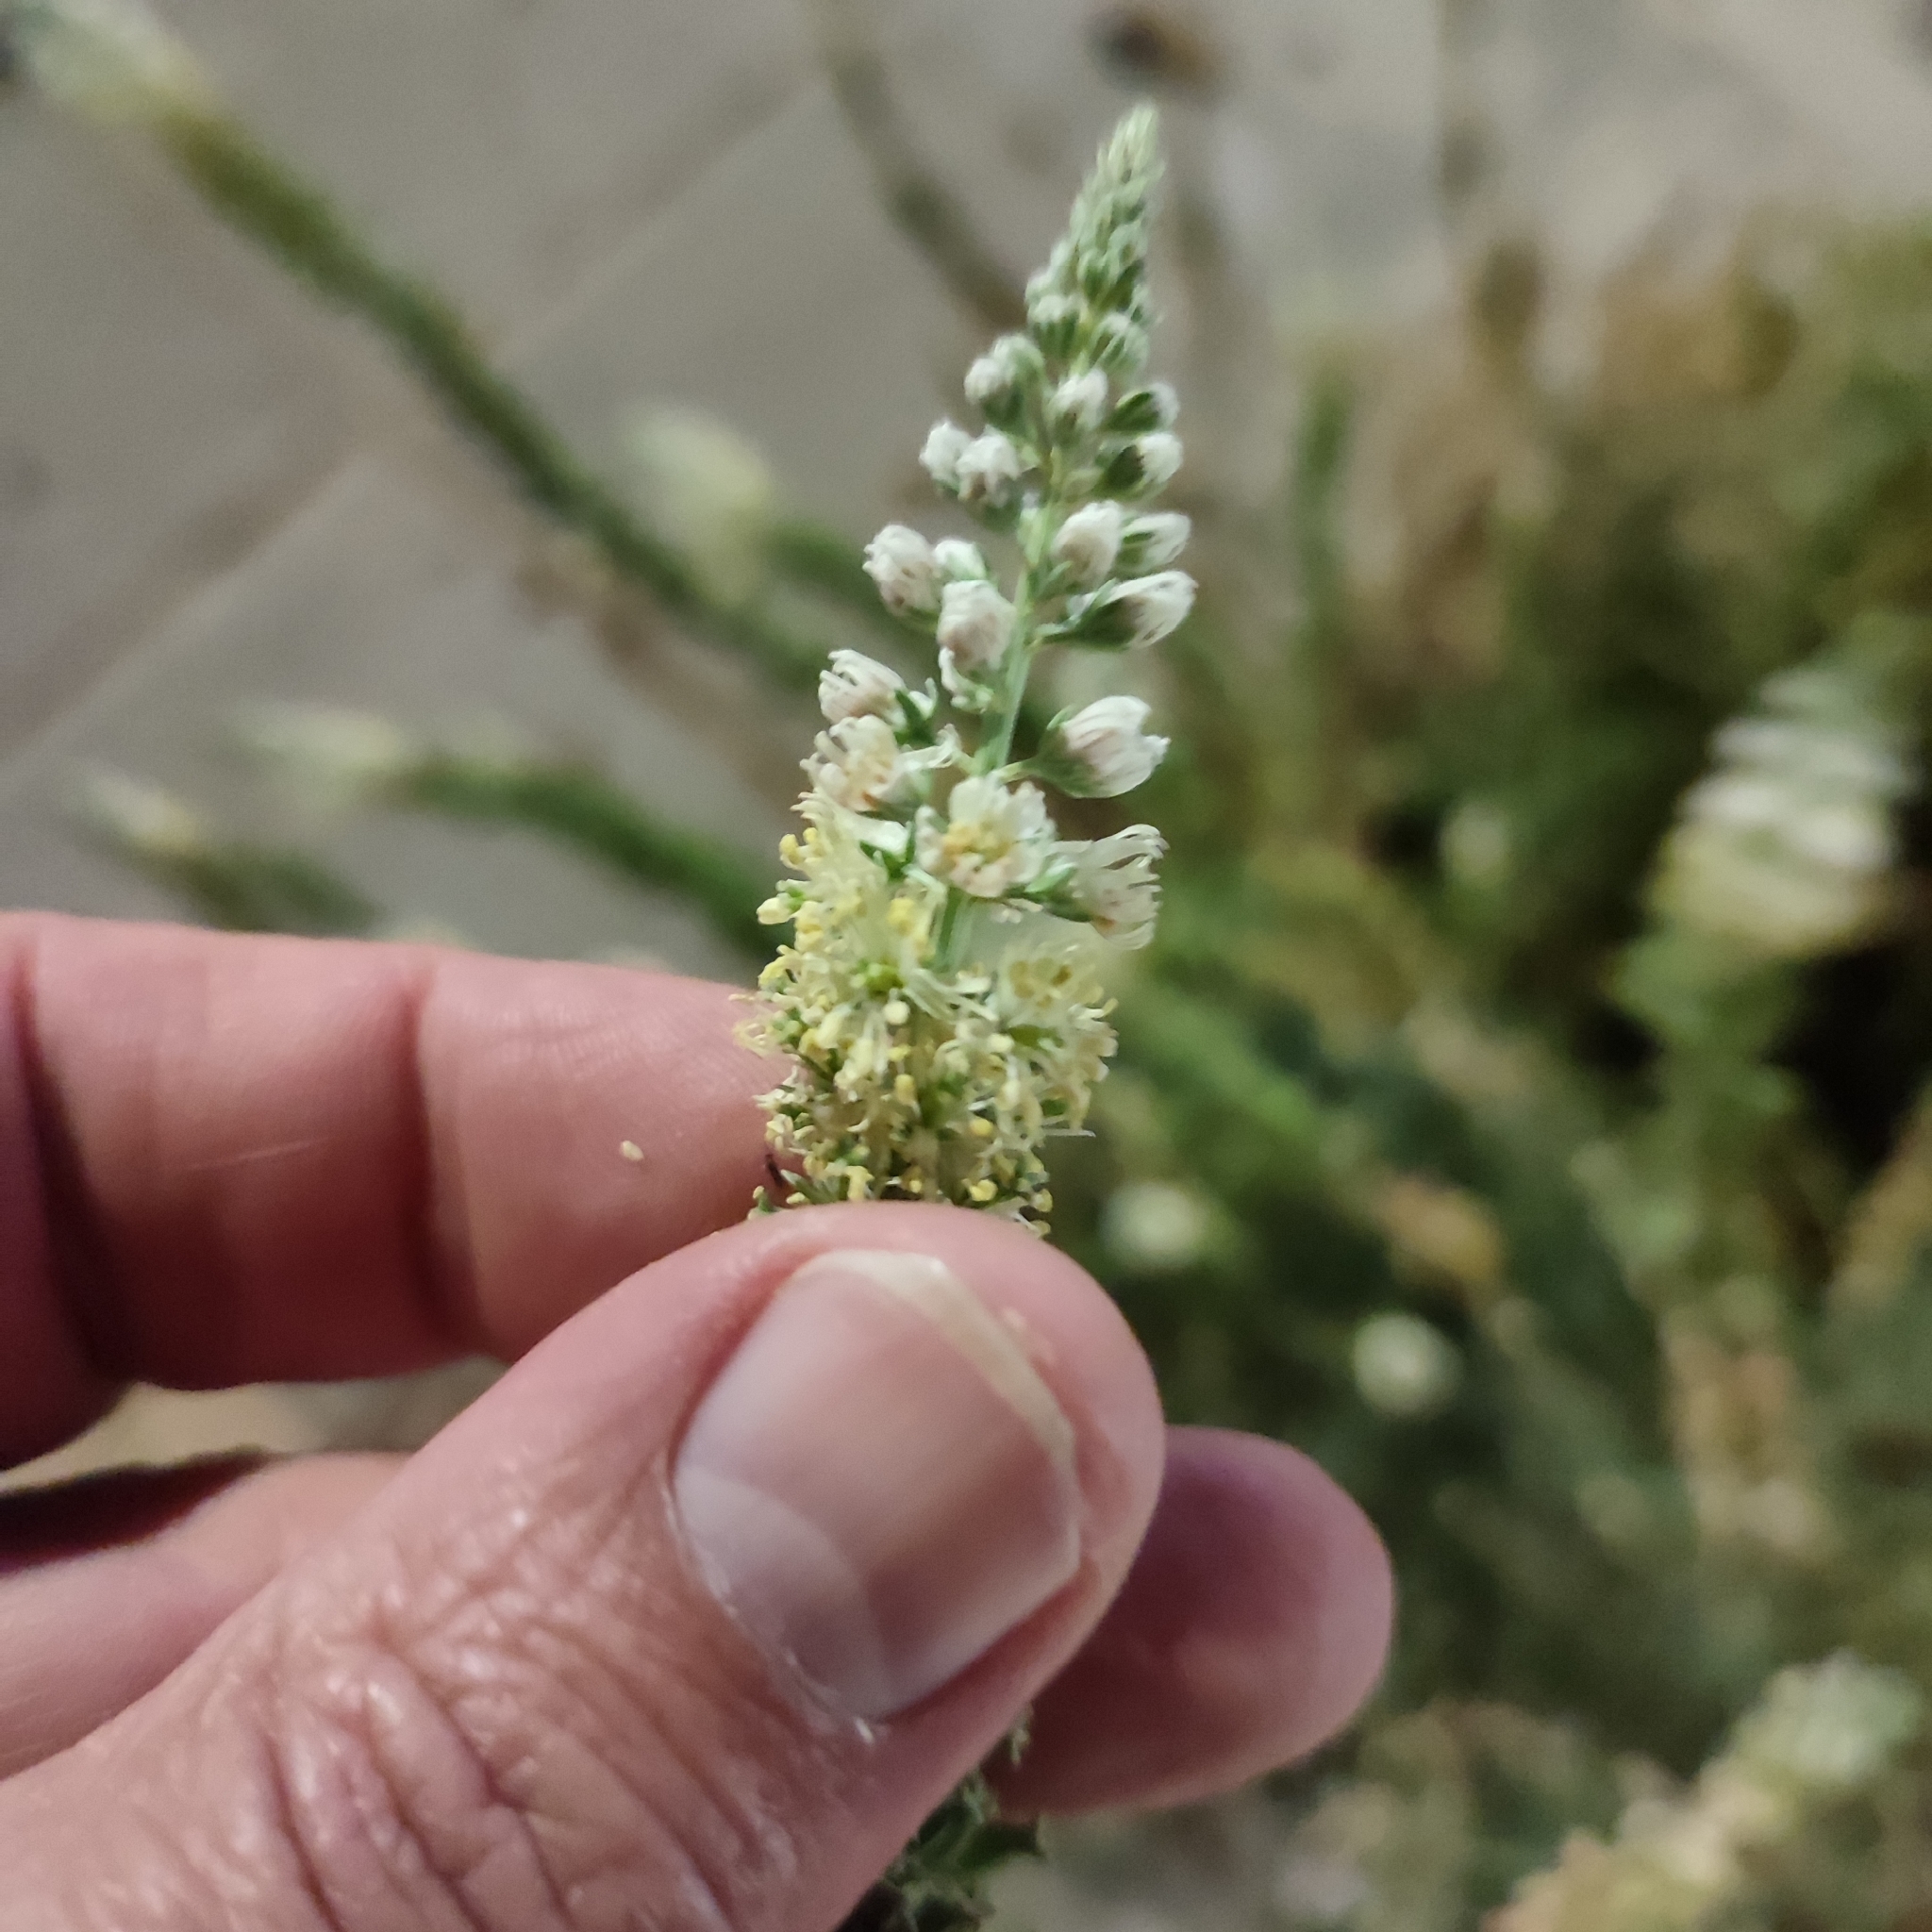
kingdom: Plantae
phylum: Tracheophyta
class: Magnoliopsida
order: Brassicales
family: Resedaceae
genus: Reseda
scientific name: Reseda alba
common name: White mignonette
